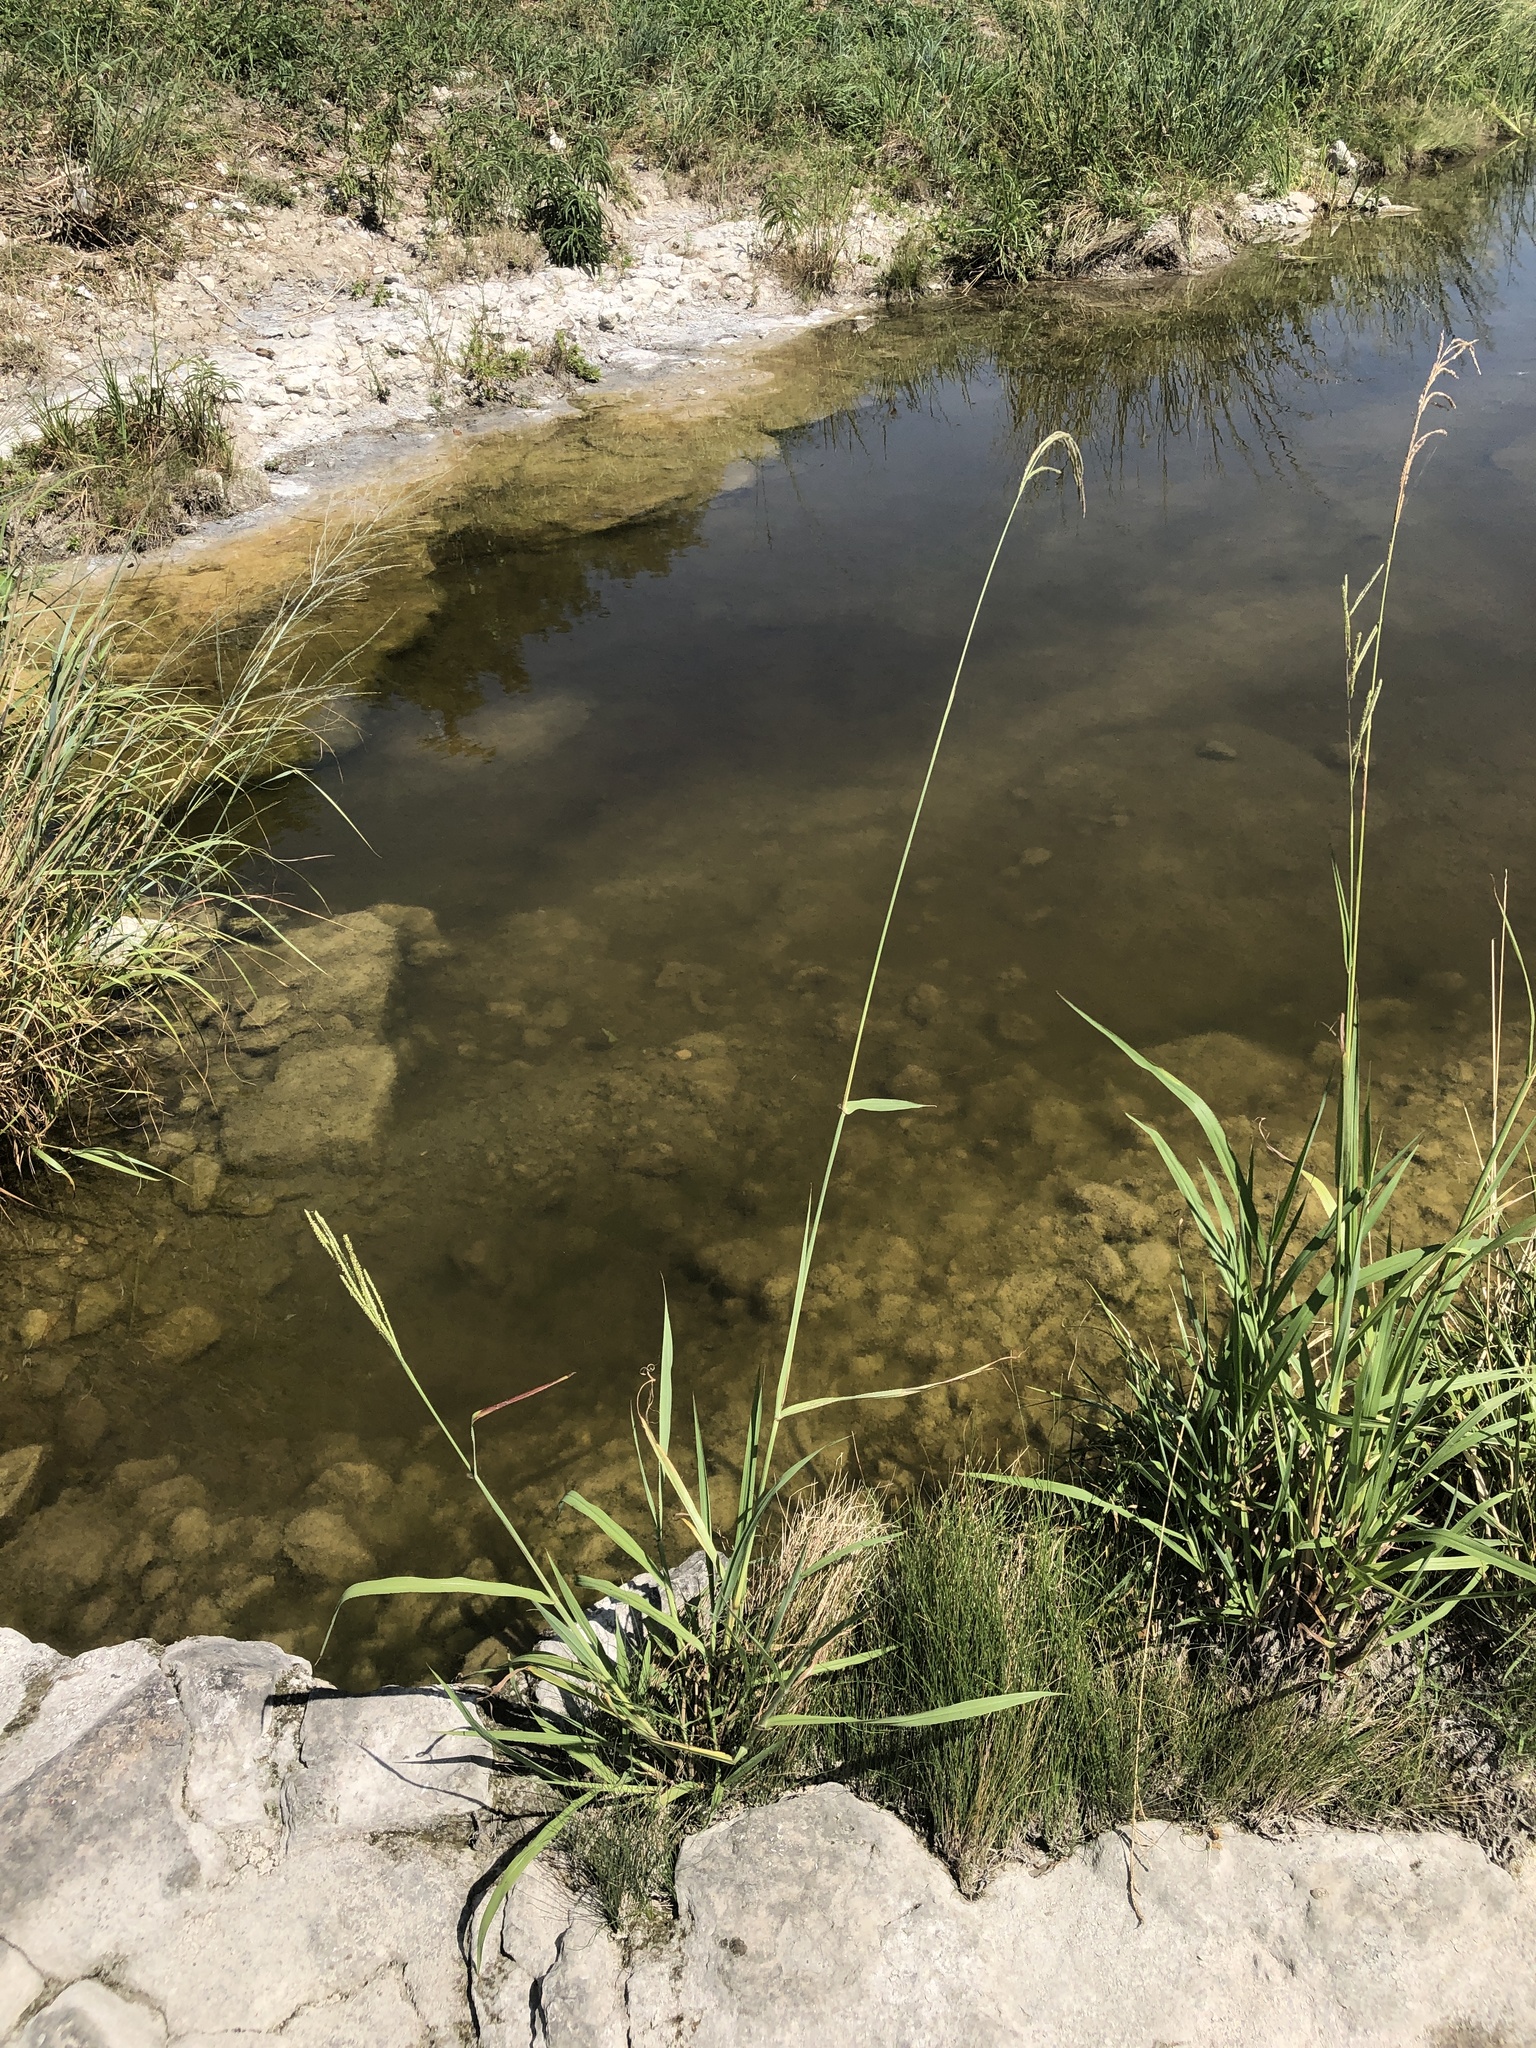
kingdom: Plantae
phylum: Tracheophyta
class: Liliopsida
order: Poales
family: Poaceae
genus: Paspalum
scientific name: Paspalum urvillei
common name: Vasey's grass
